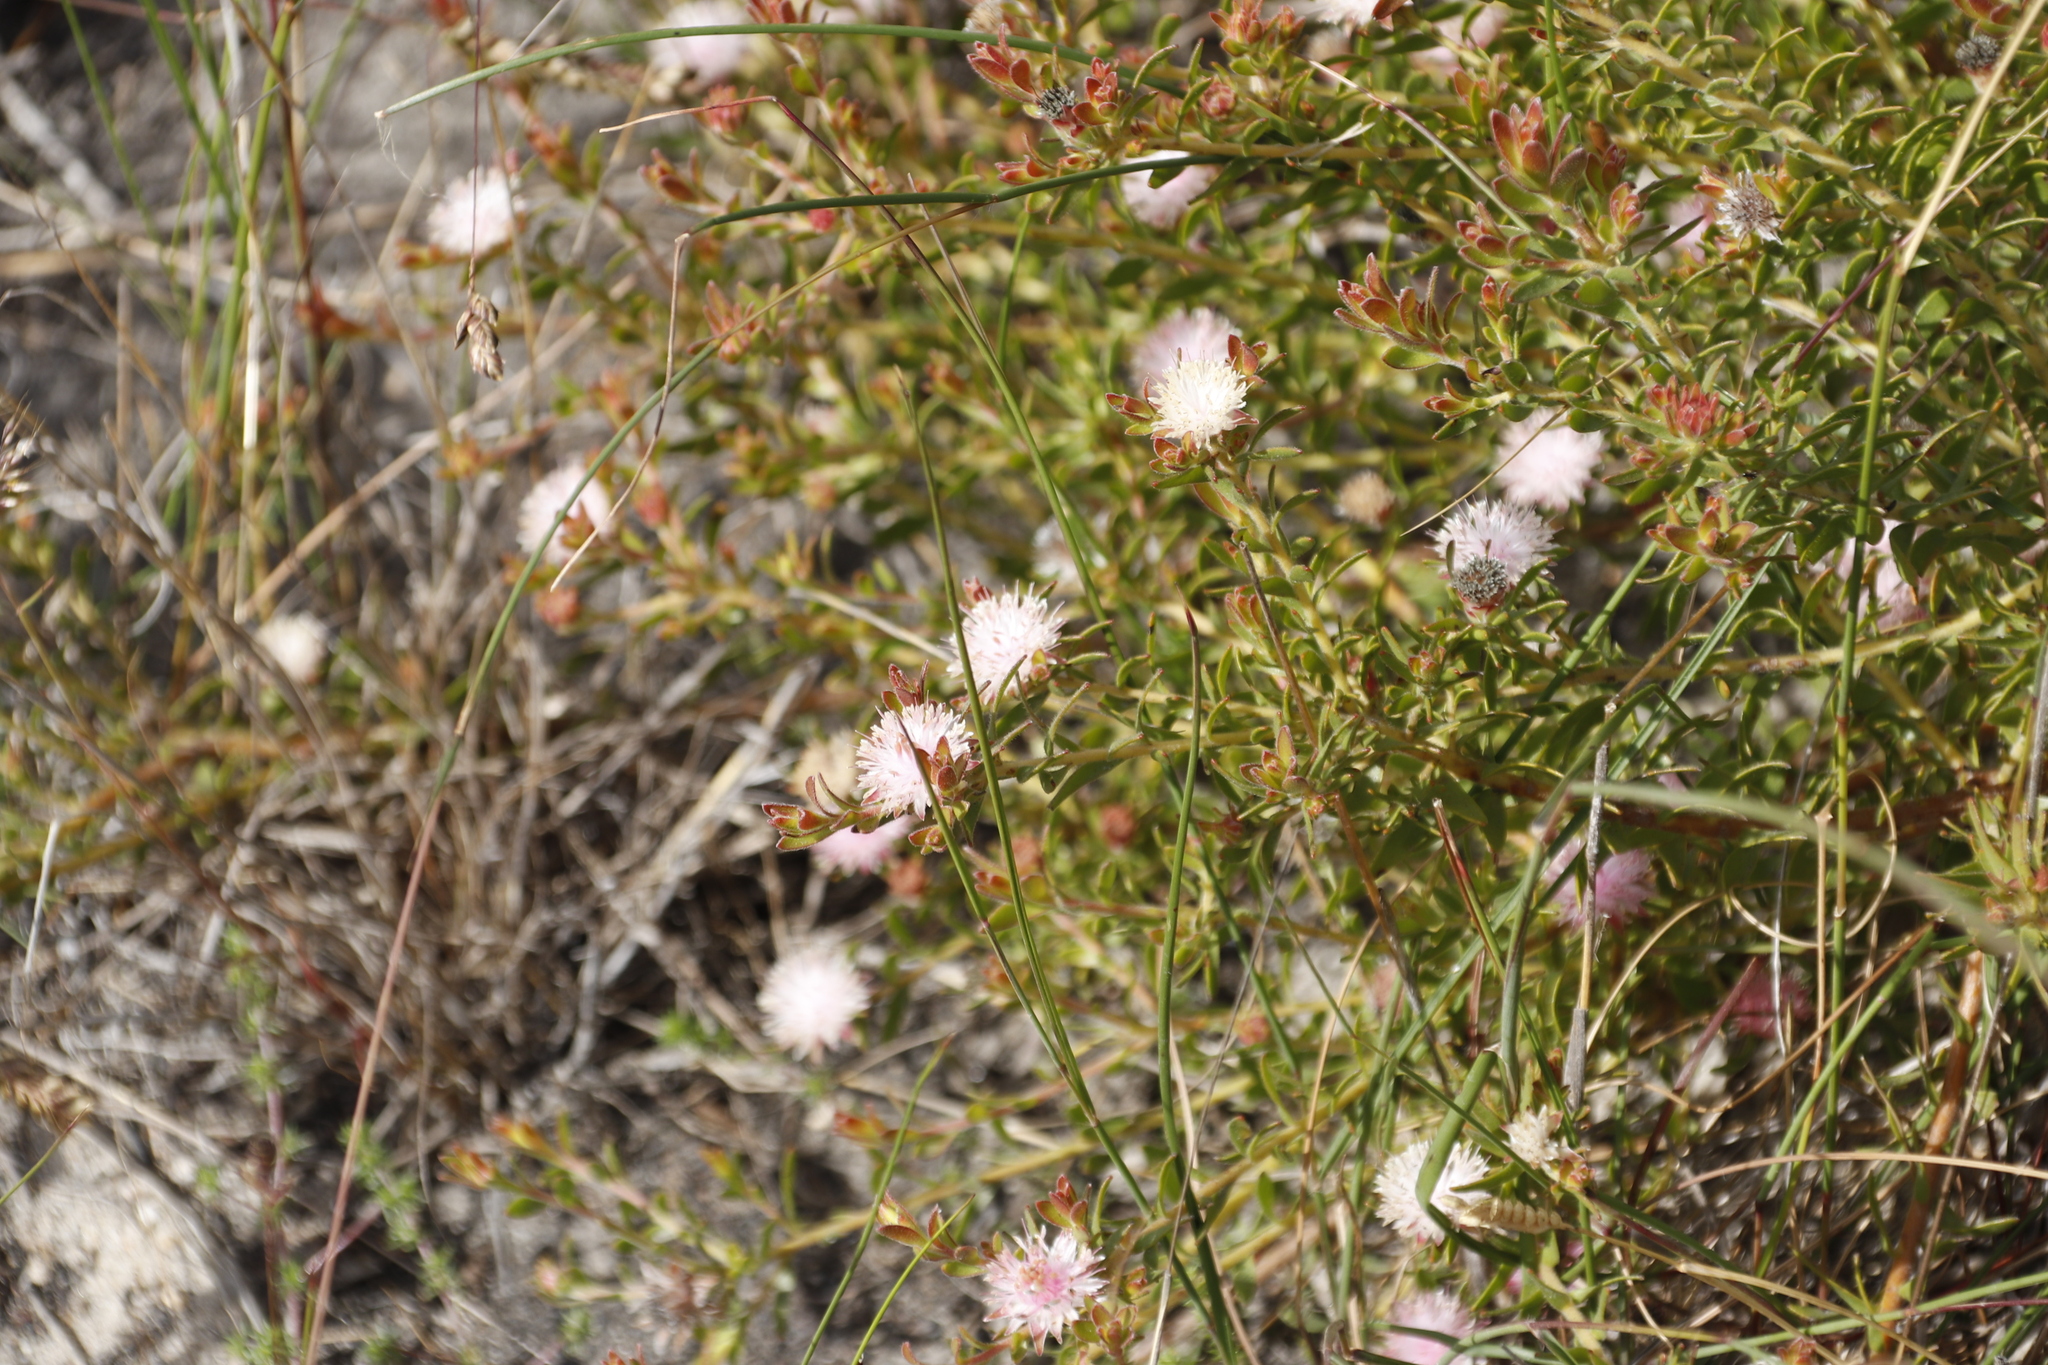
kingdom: Plantae
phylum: Tracheophyta
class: Magnoliopsida
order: Proteales
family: Proteaceae
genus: Diastella
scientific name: Diastella divaricata
